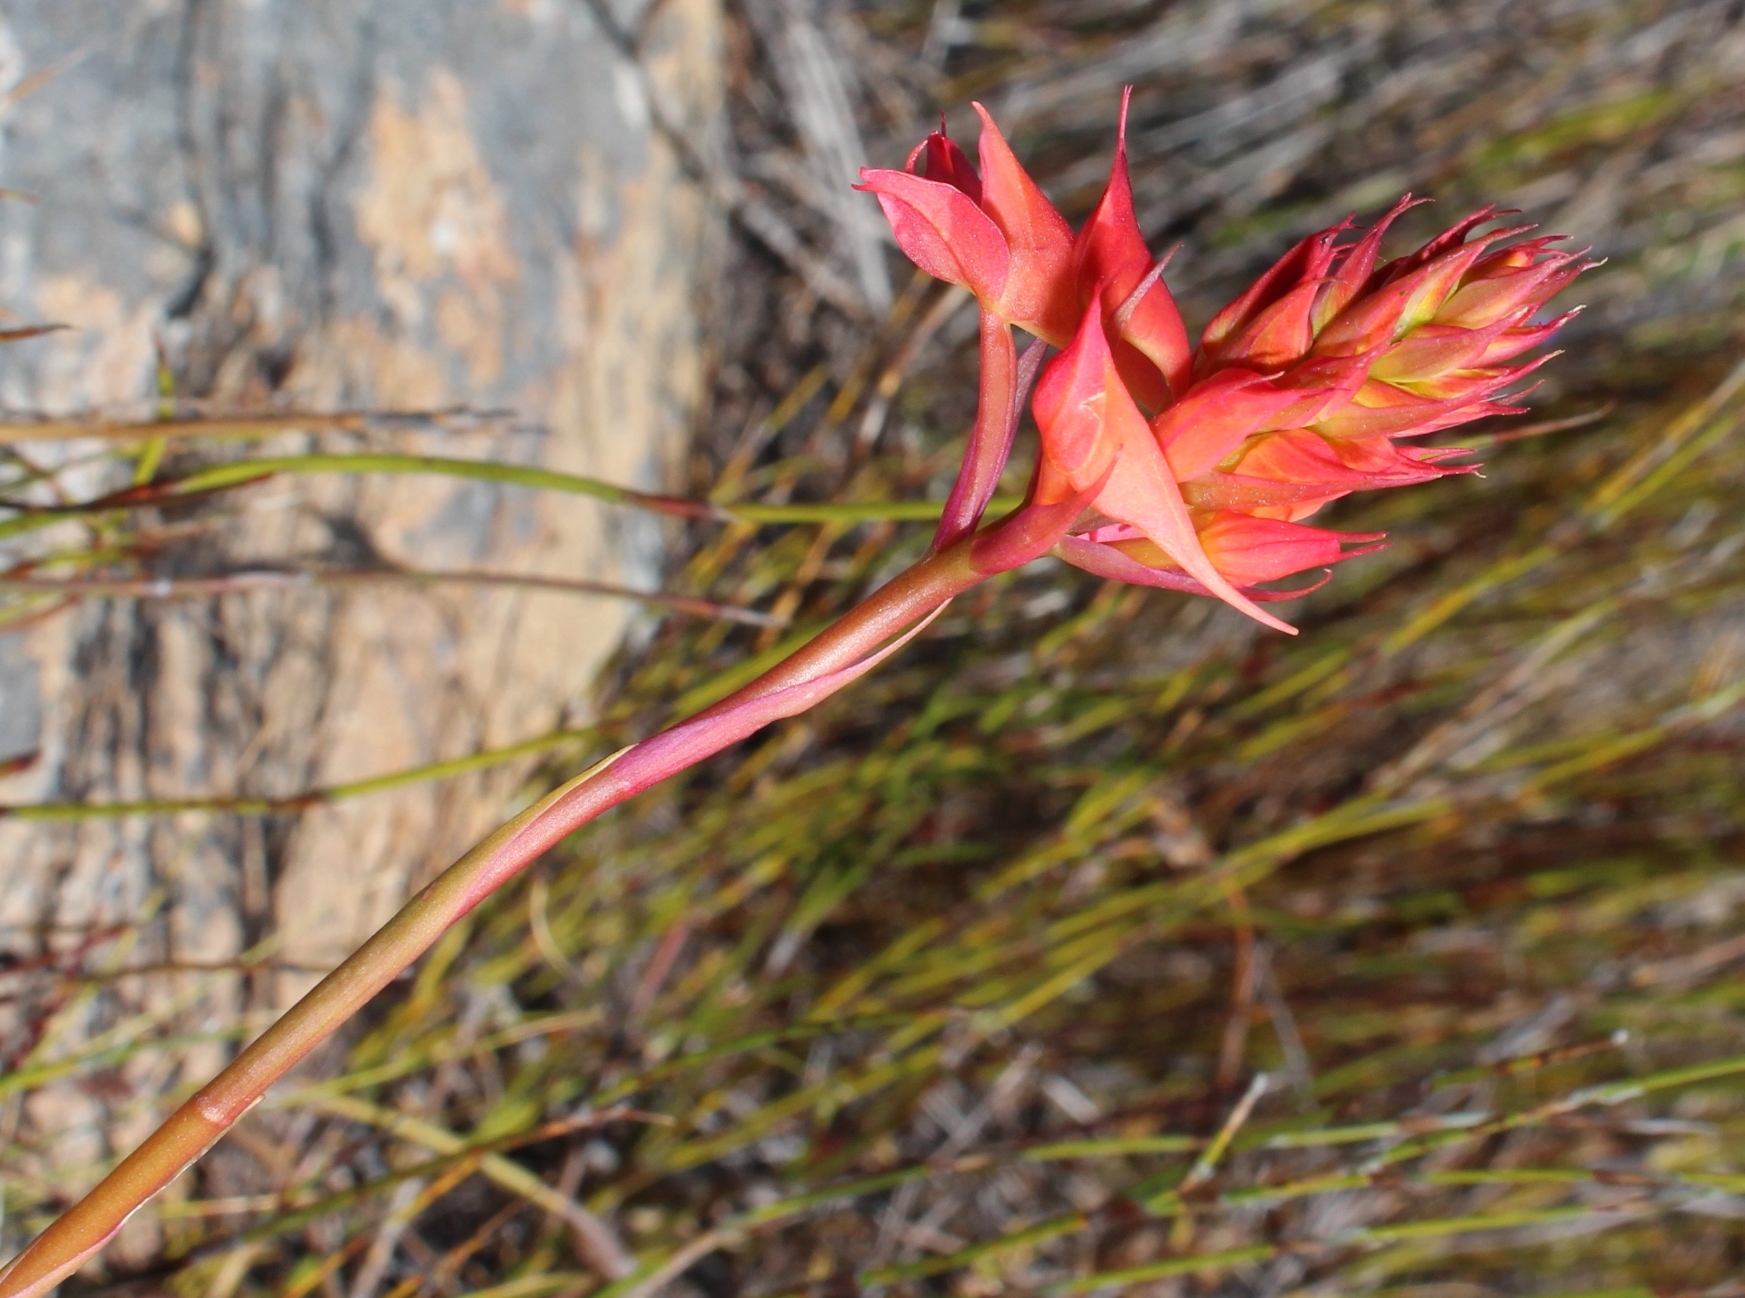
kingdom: Plantae
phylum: Tracheophyta
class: Liliopsida
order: Asparagales
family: Orchidaceae
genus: Disa
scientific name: Disa ferruginea
